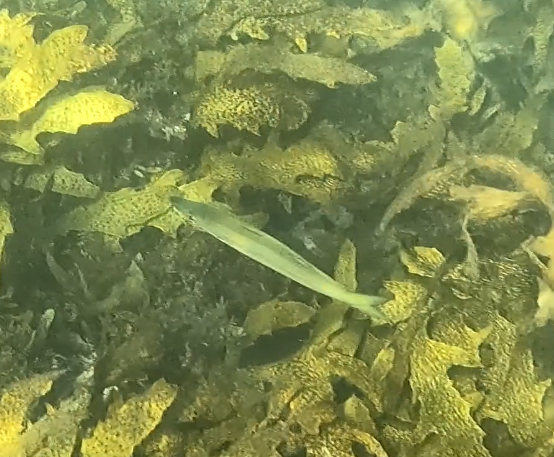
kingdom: Animalia
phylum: Chordata
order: Perciformes
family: Dinolestidae
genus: Dinolestes
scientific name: Dinolestes lewini
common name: Jack pike
